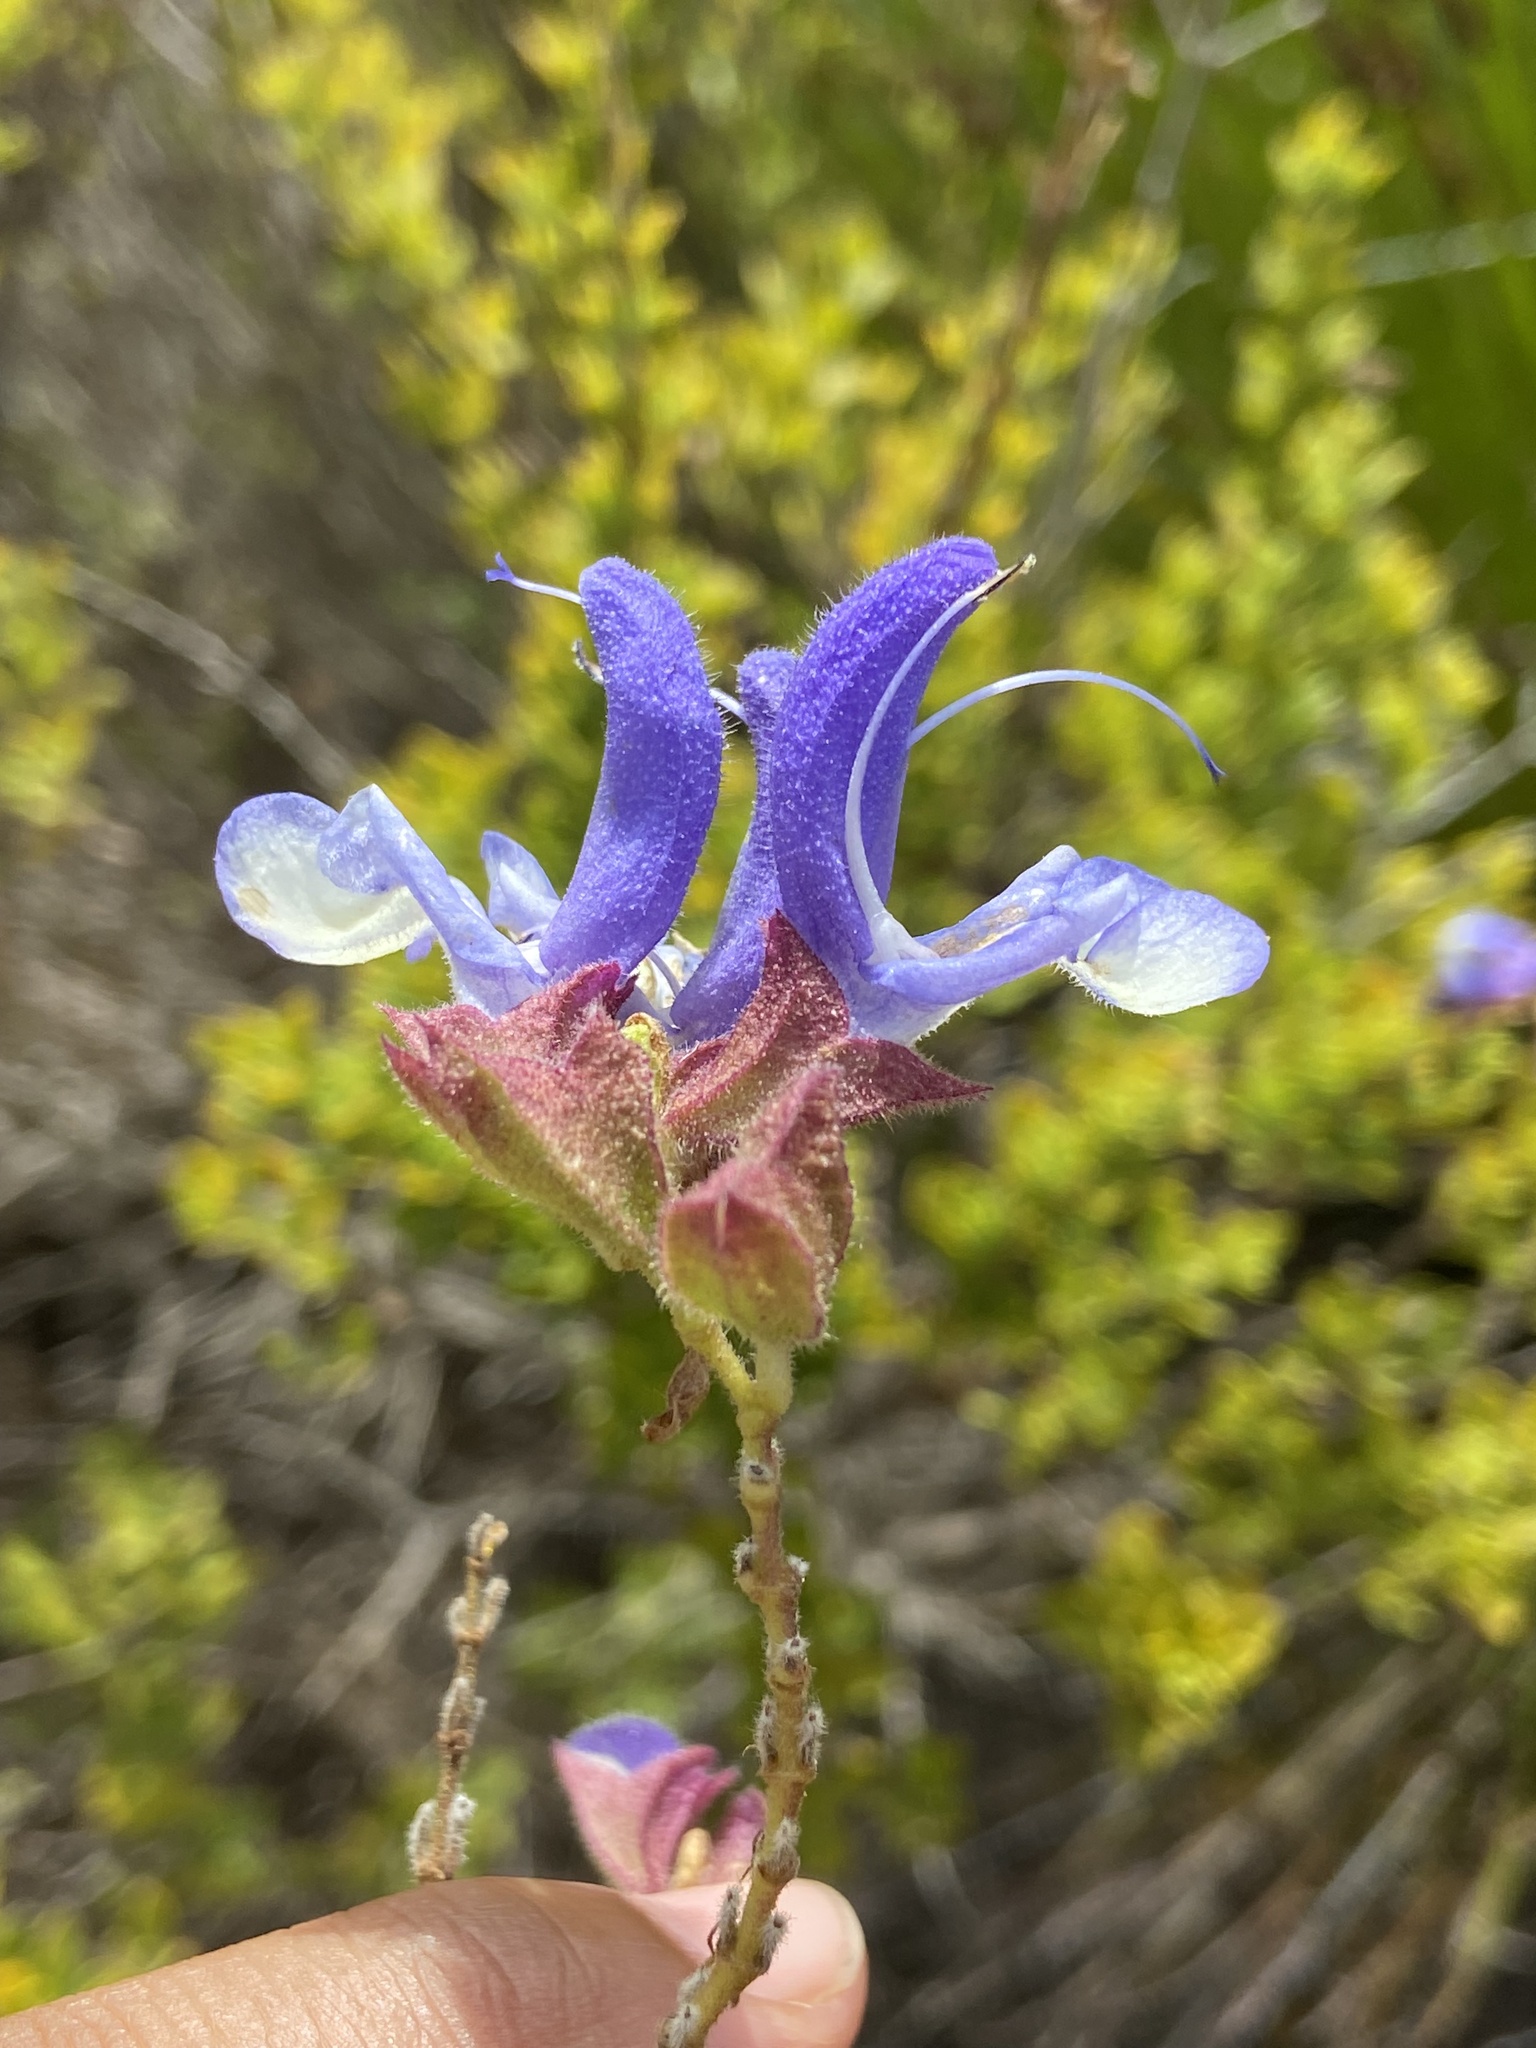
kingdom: Plantae
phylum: Tracheophyta
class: Magnoliopsida
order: Lamiales
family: Lamiaceae
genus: Salvia
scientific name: Salvia chamelaeagnea
